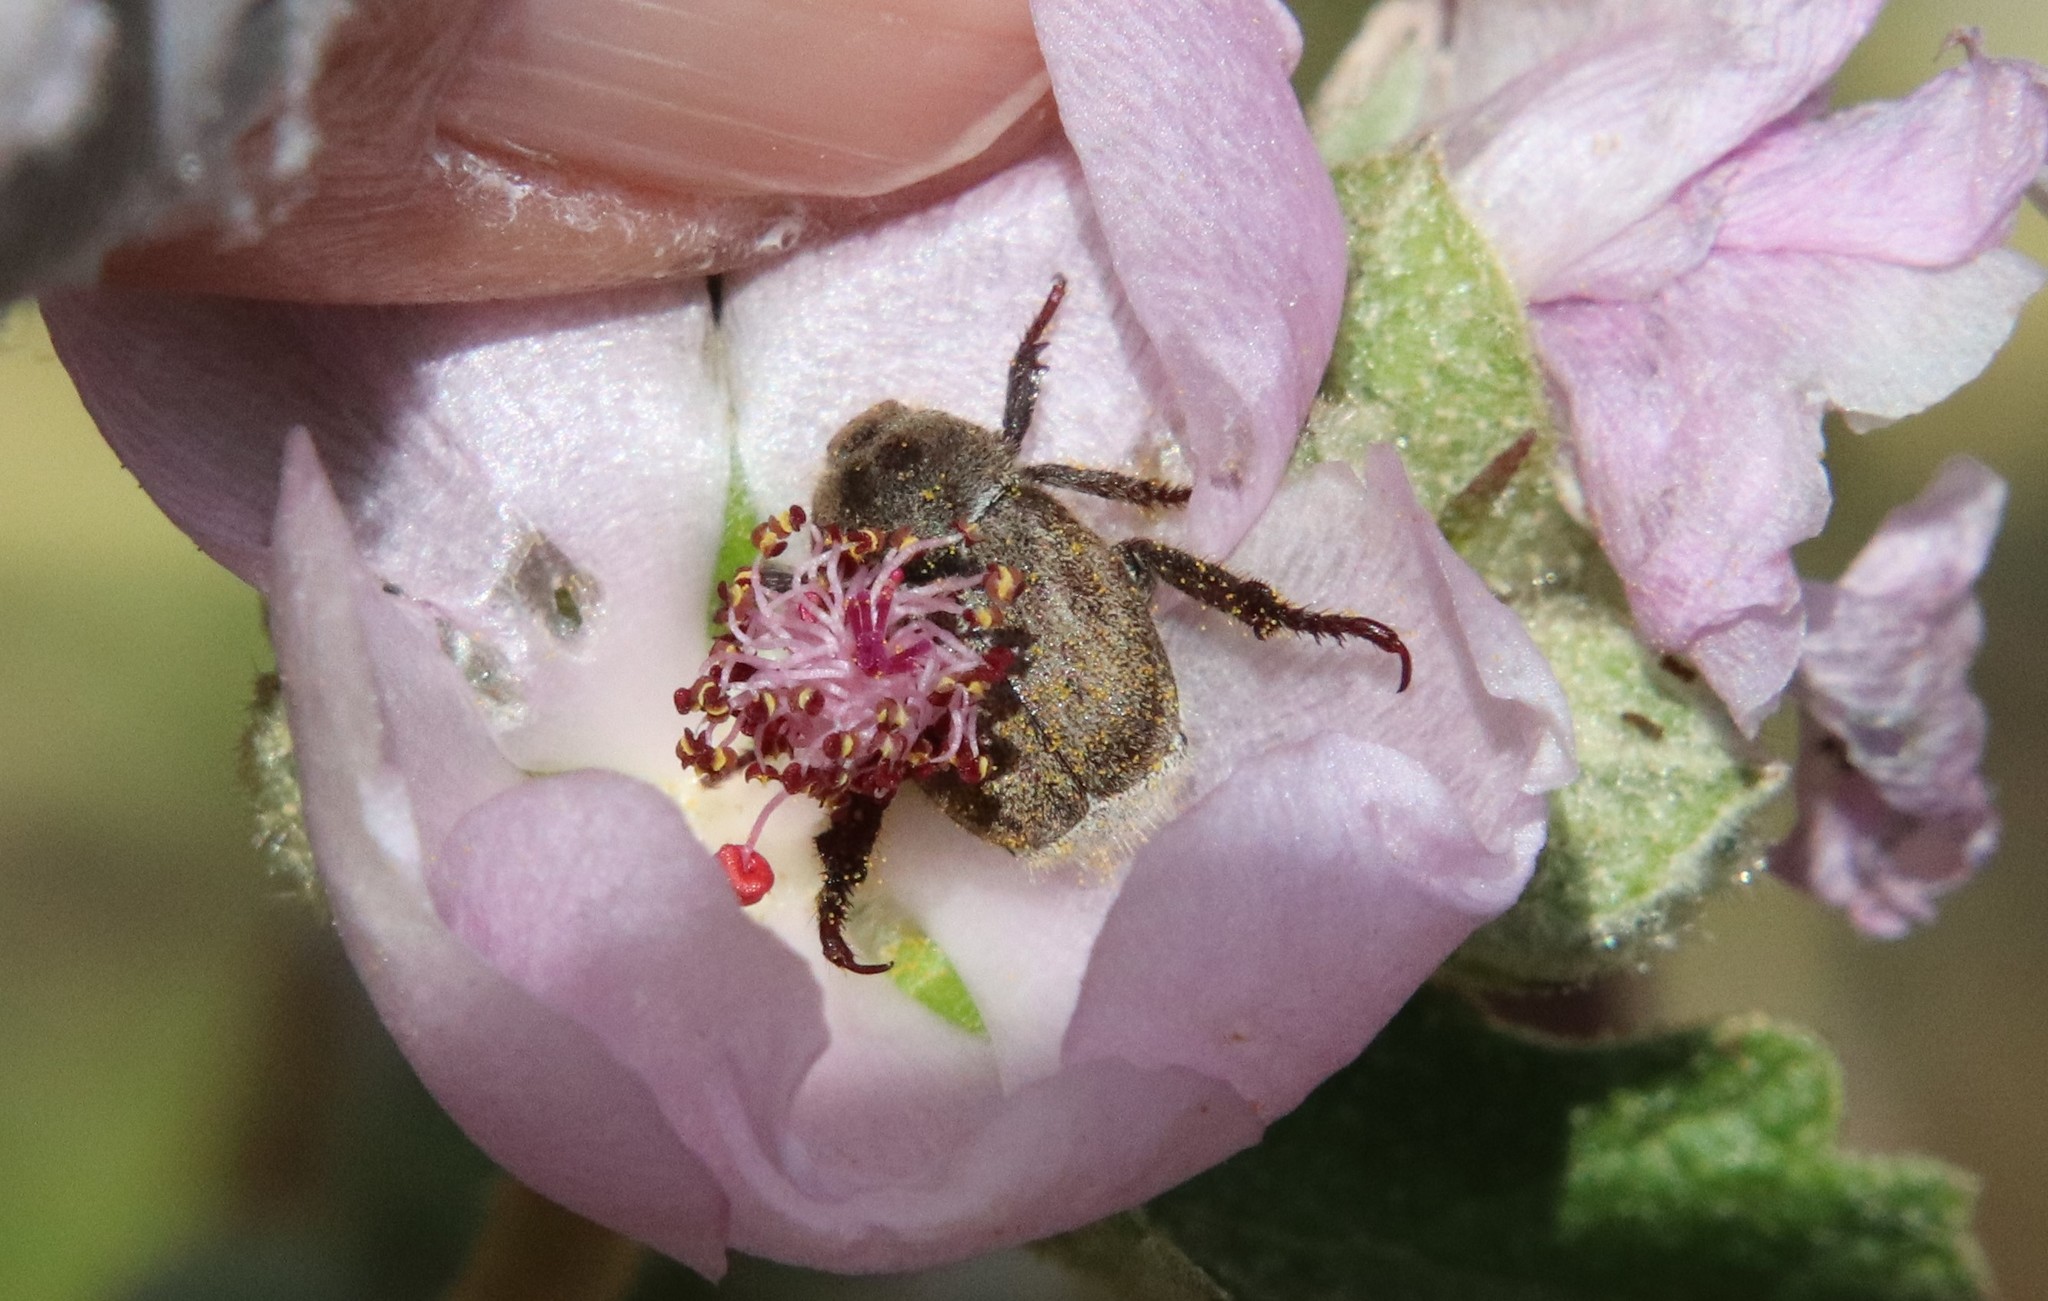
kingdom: Animalia
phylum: Arthropoda
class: Insecta
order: Coleoptera
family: Scarabaeidae
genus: Hoplia
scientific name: Hoplia callipyge
